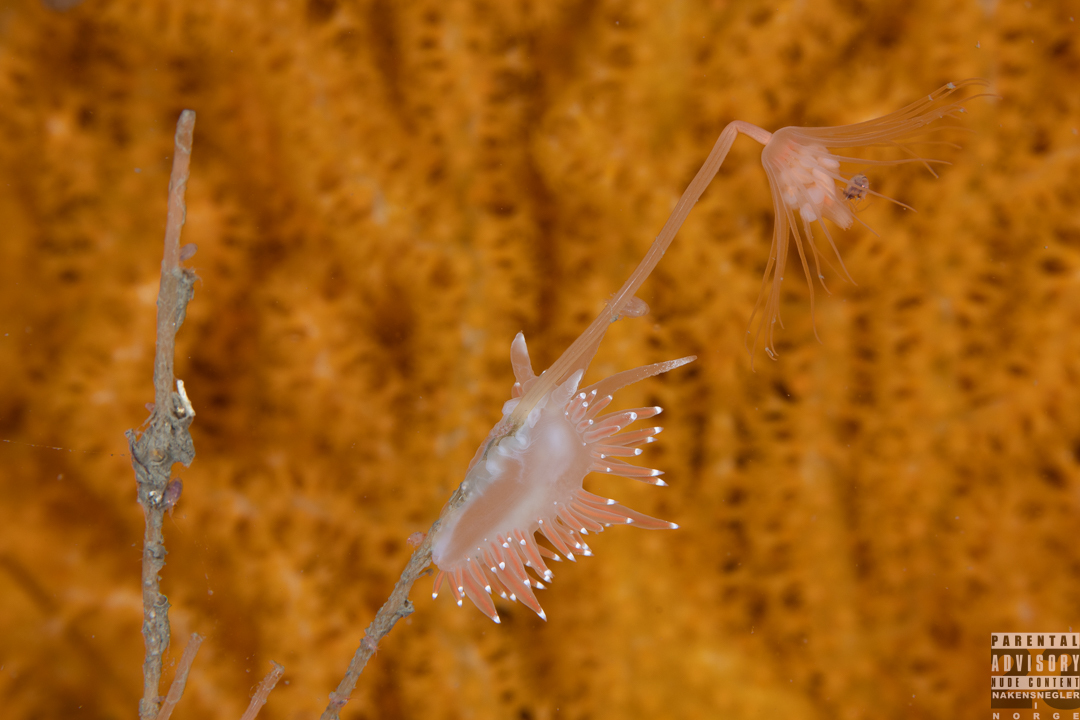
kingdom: Animalia
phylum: Mollusca
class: Gastropoda
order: Nudibranchia
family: Coryphellidae
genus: Coryphella
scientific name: Coryphella browni
